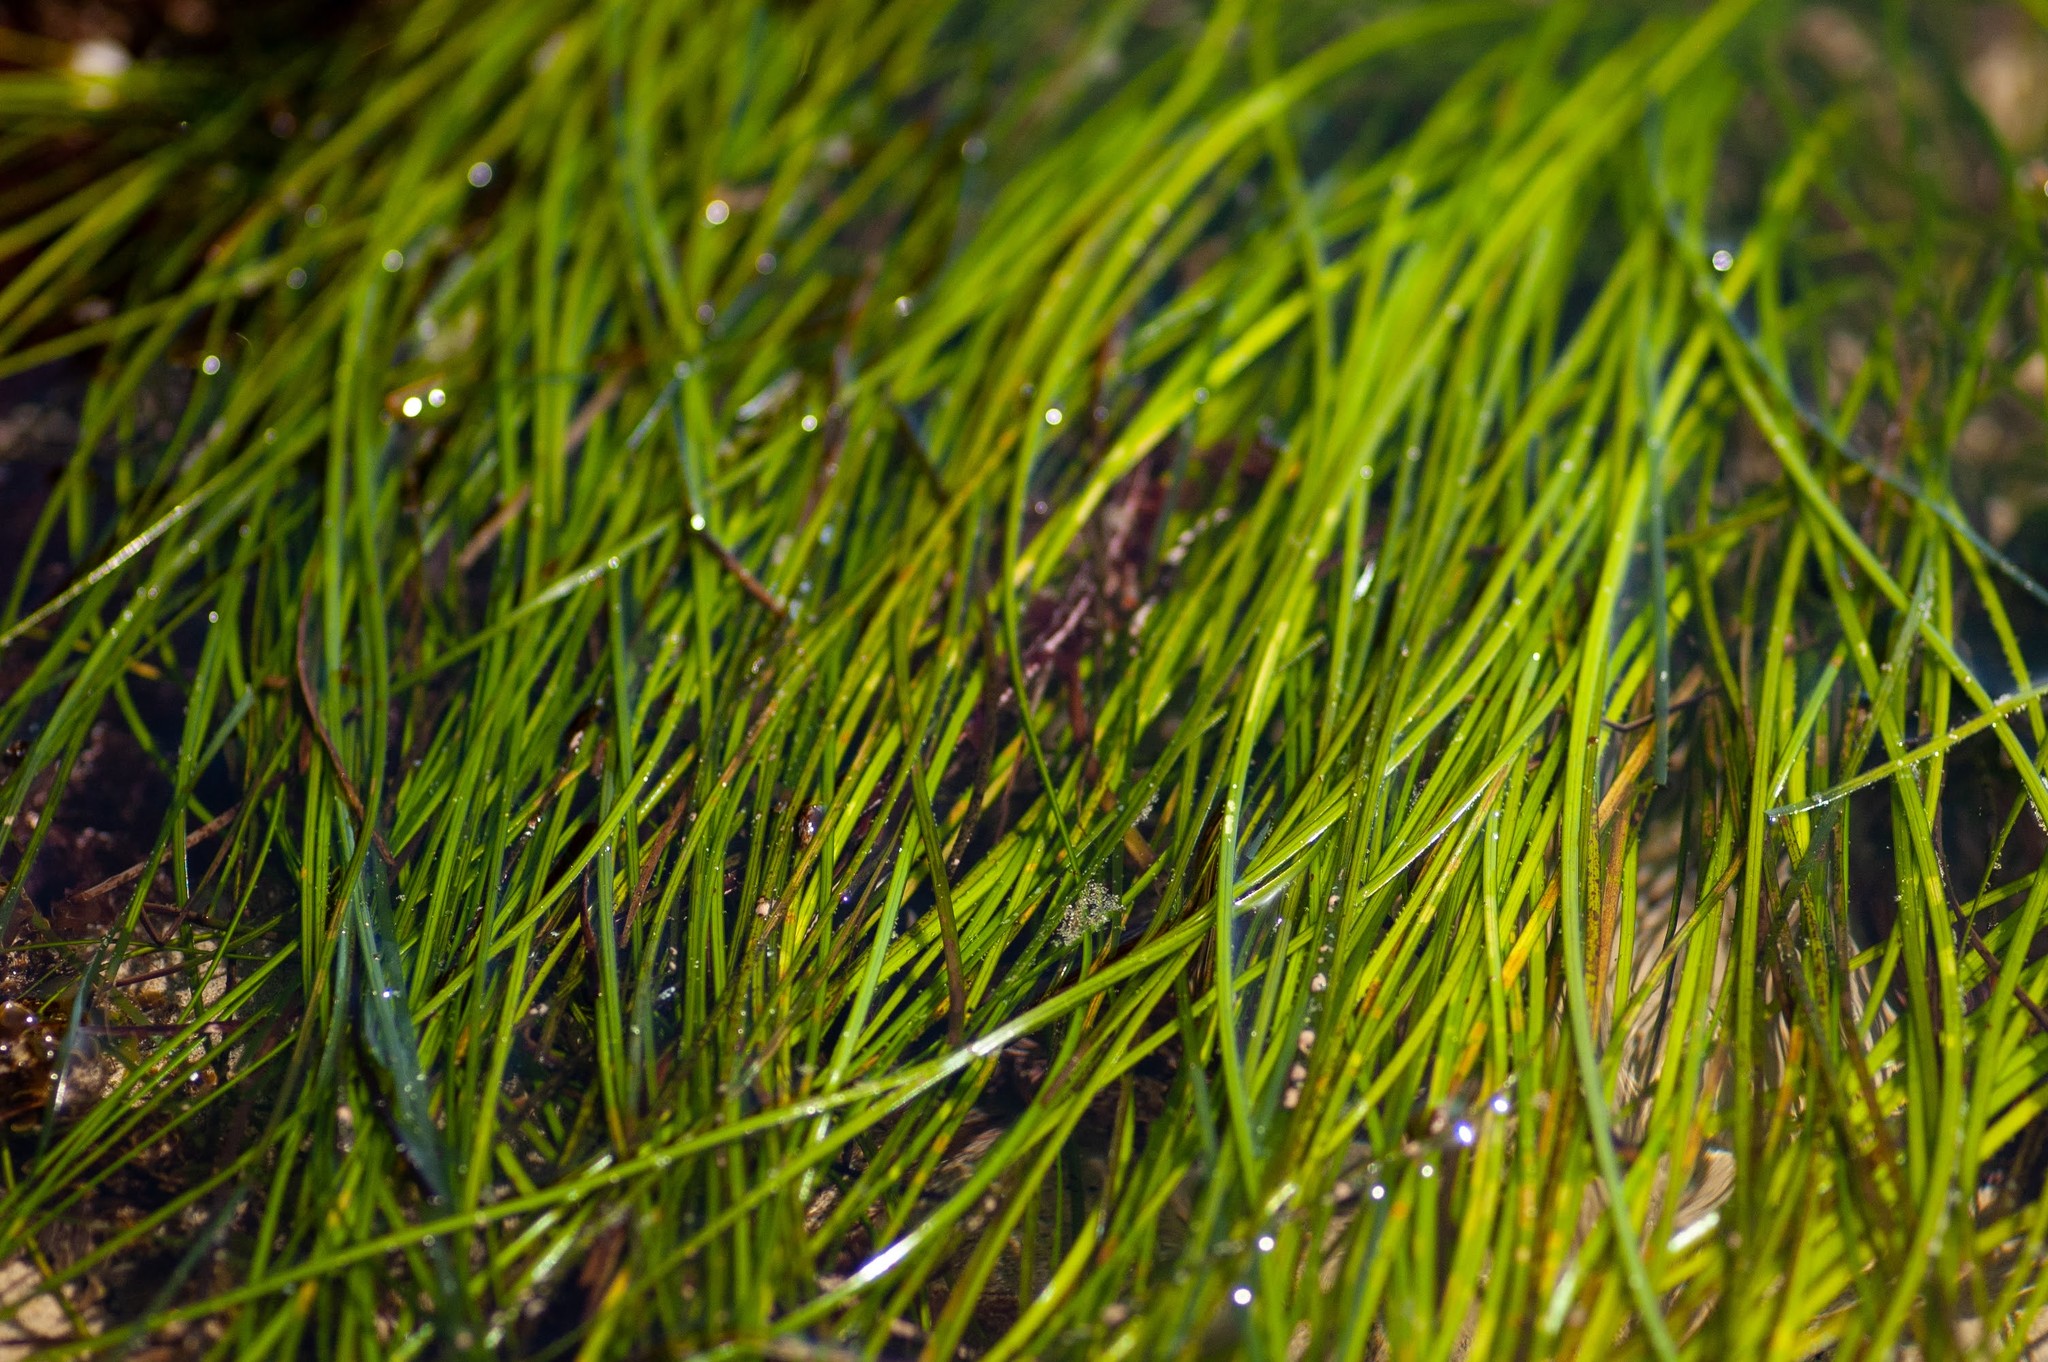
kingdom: Plantae
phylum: Tracheophyta
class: Liliopsida
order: Alismatales
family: Zosteraceae
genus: Phyllospadix
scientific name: Phyllospadix torreyi
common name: Surfgrass
